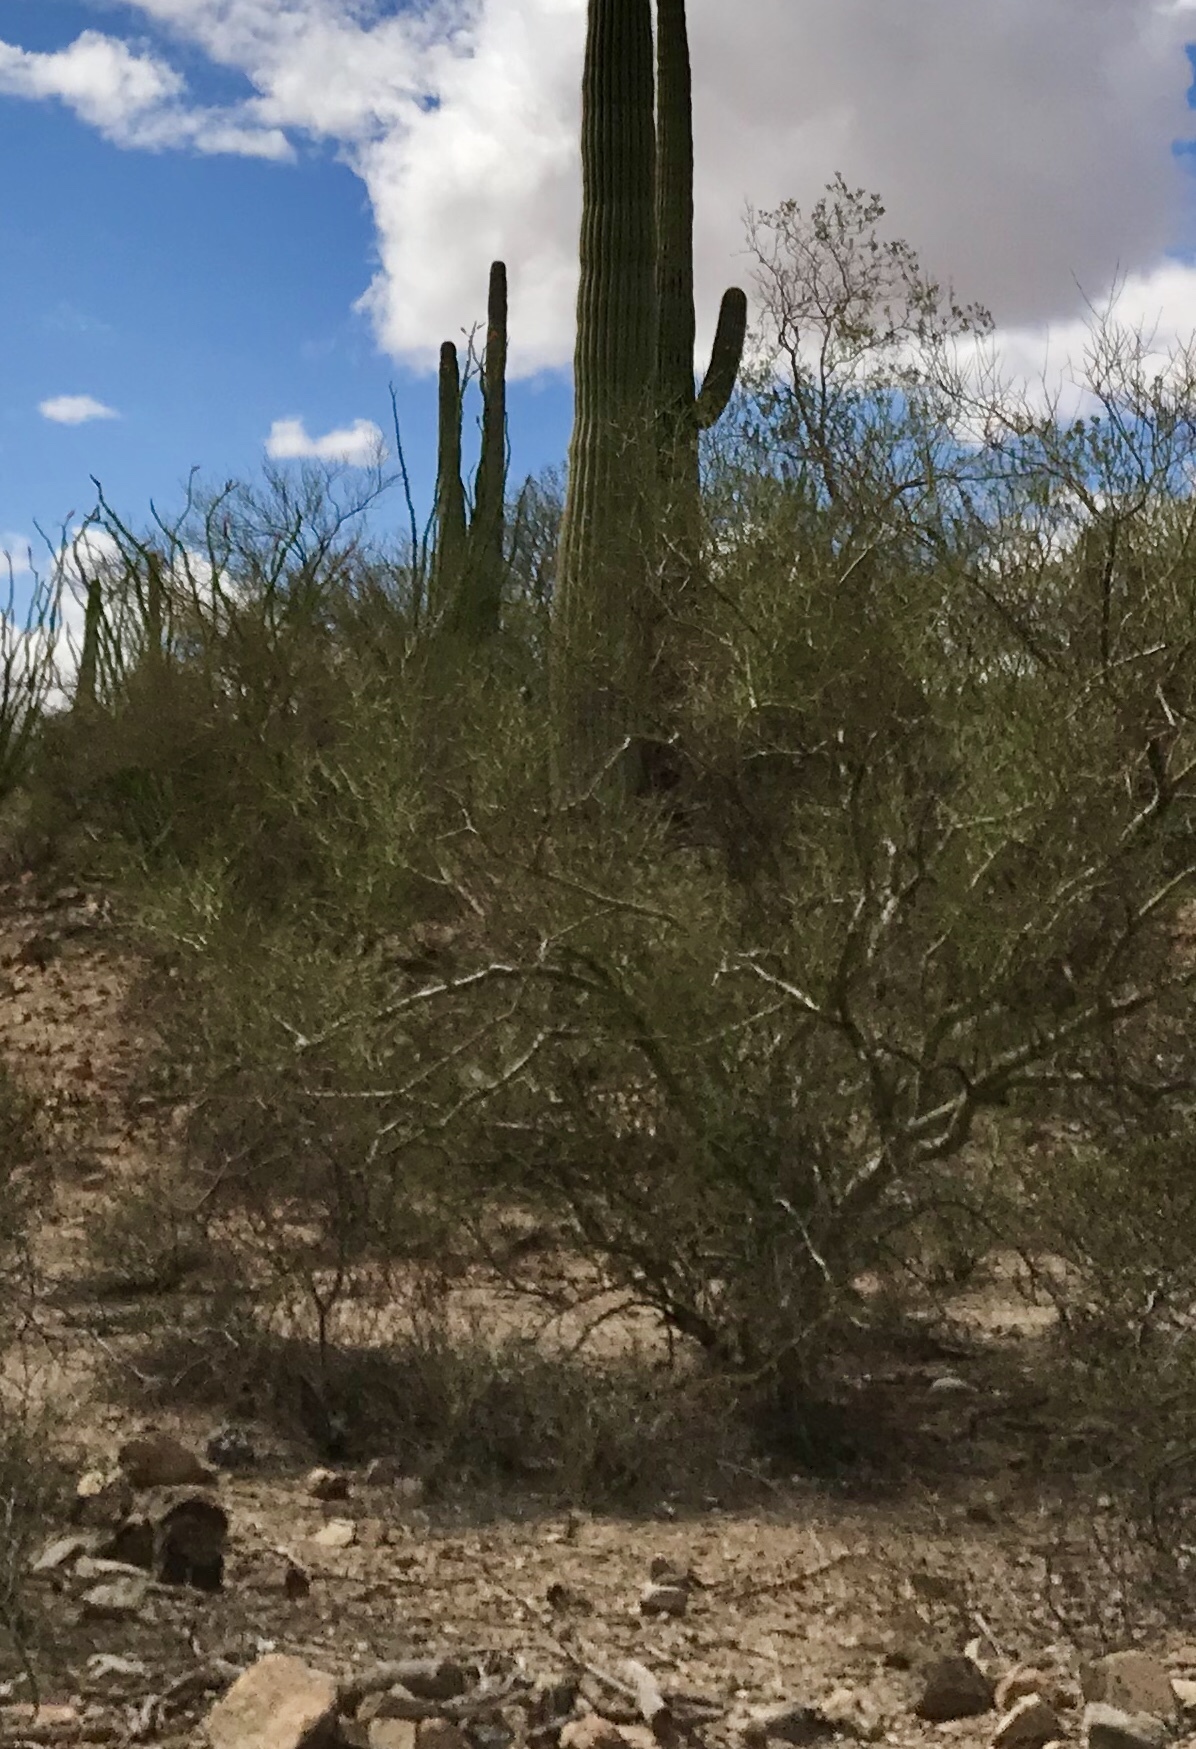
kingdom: Plantae
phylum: Tracheophyta
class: Magnoliopsida
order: Fabales
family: Fabaceae
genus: Parkinsonia
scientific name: Parkinsonia microphylla
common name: Yellow paloverde
